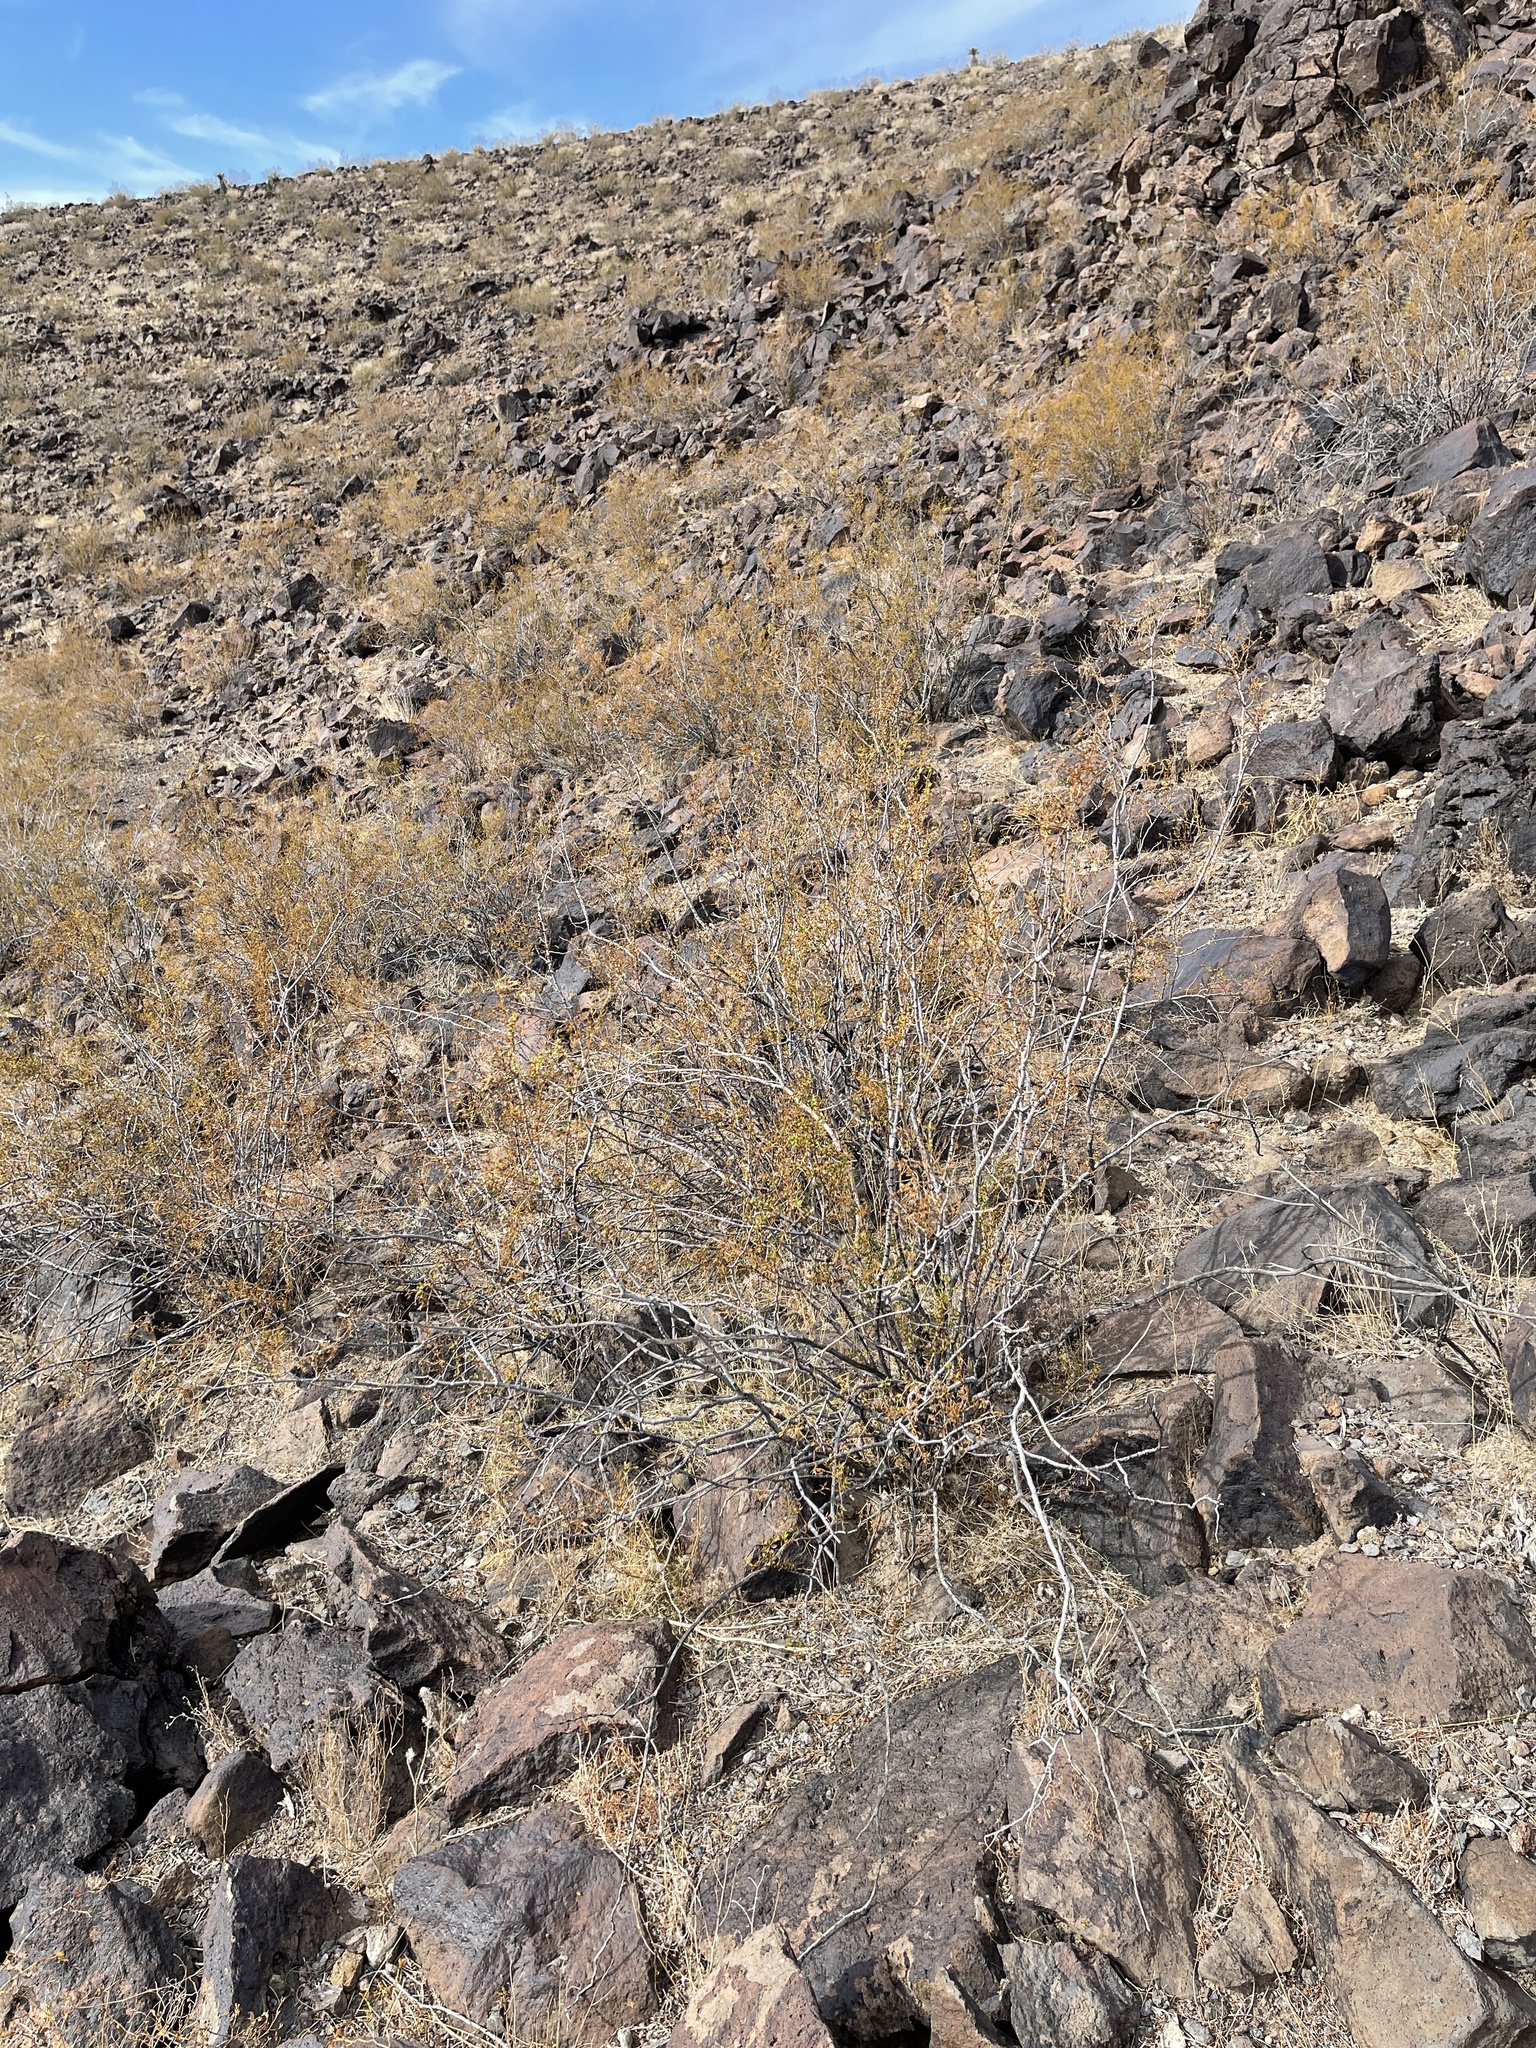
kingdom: Plantae
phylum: Tracheophyta
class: Magnoliopsida
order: Zygophyllales
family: Zygophyllaceae
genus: Larrea
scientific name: Larrea tridentata
